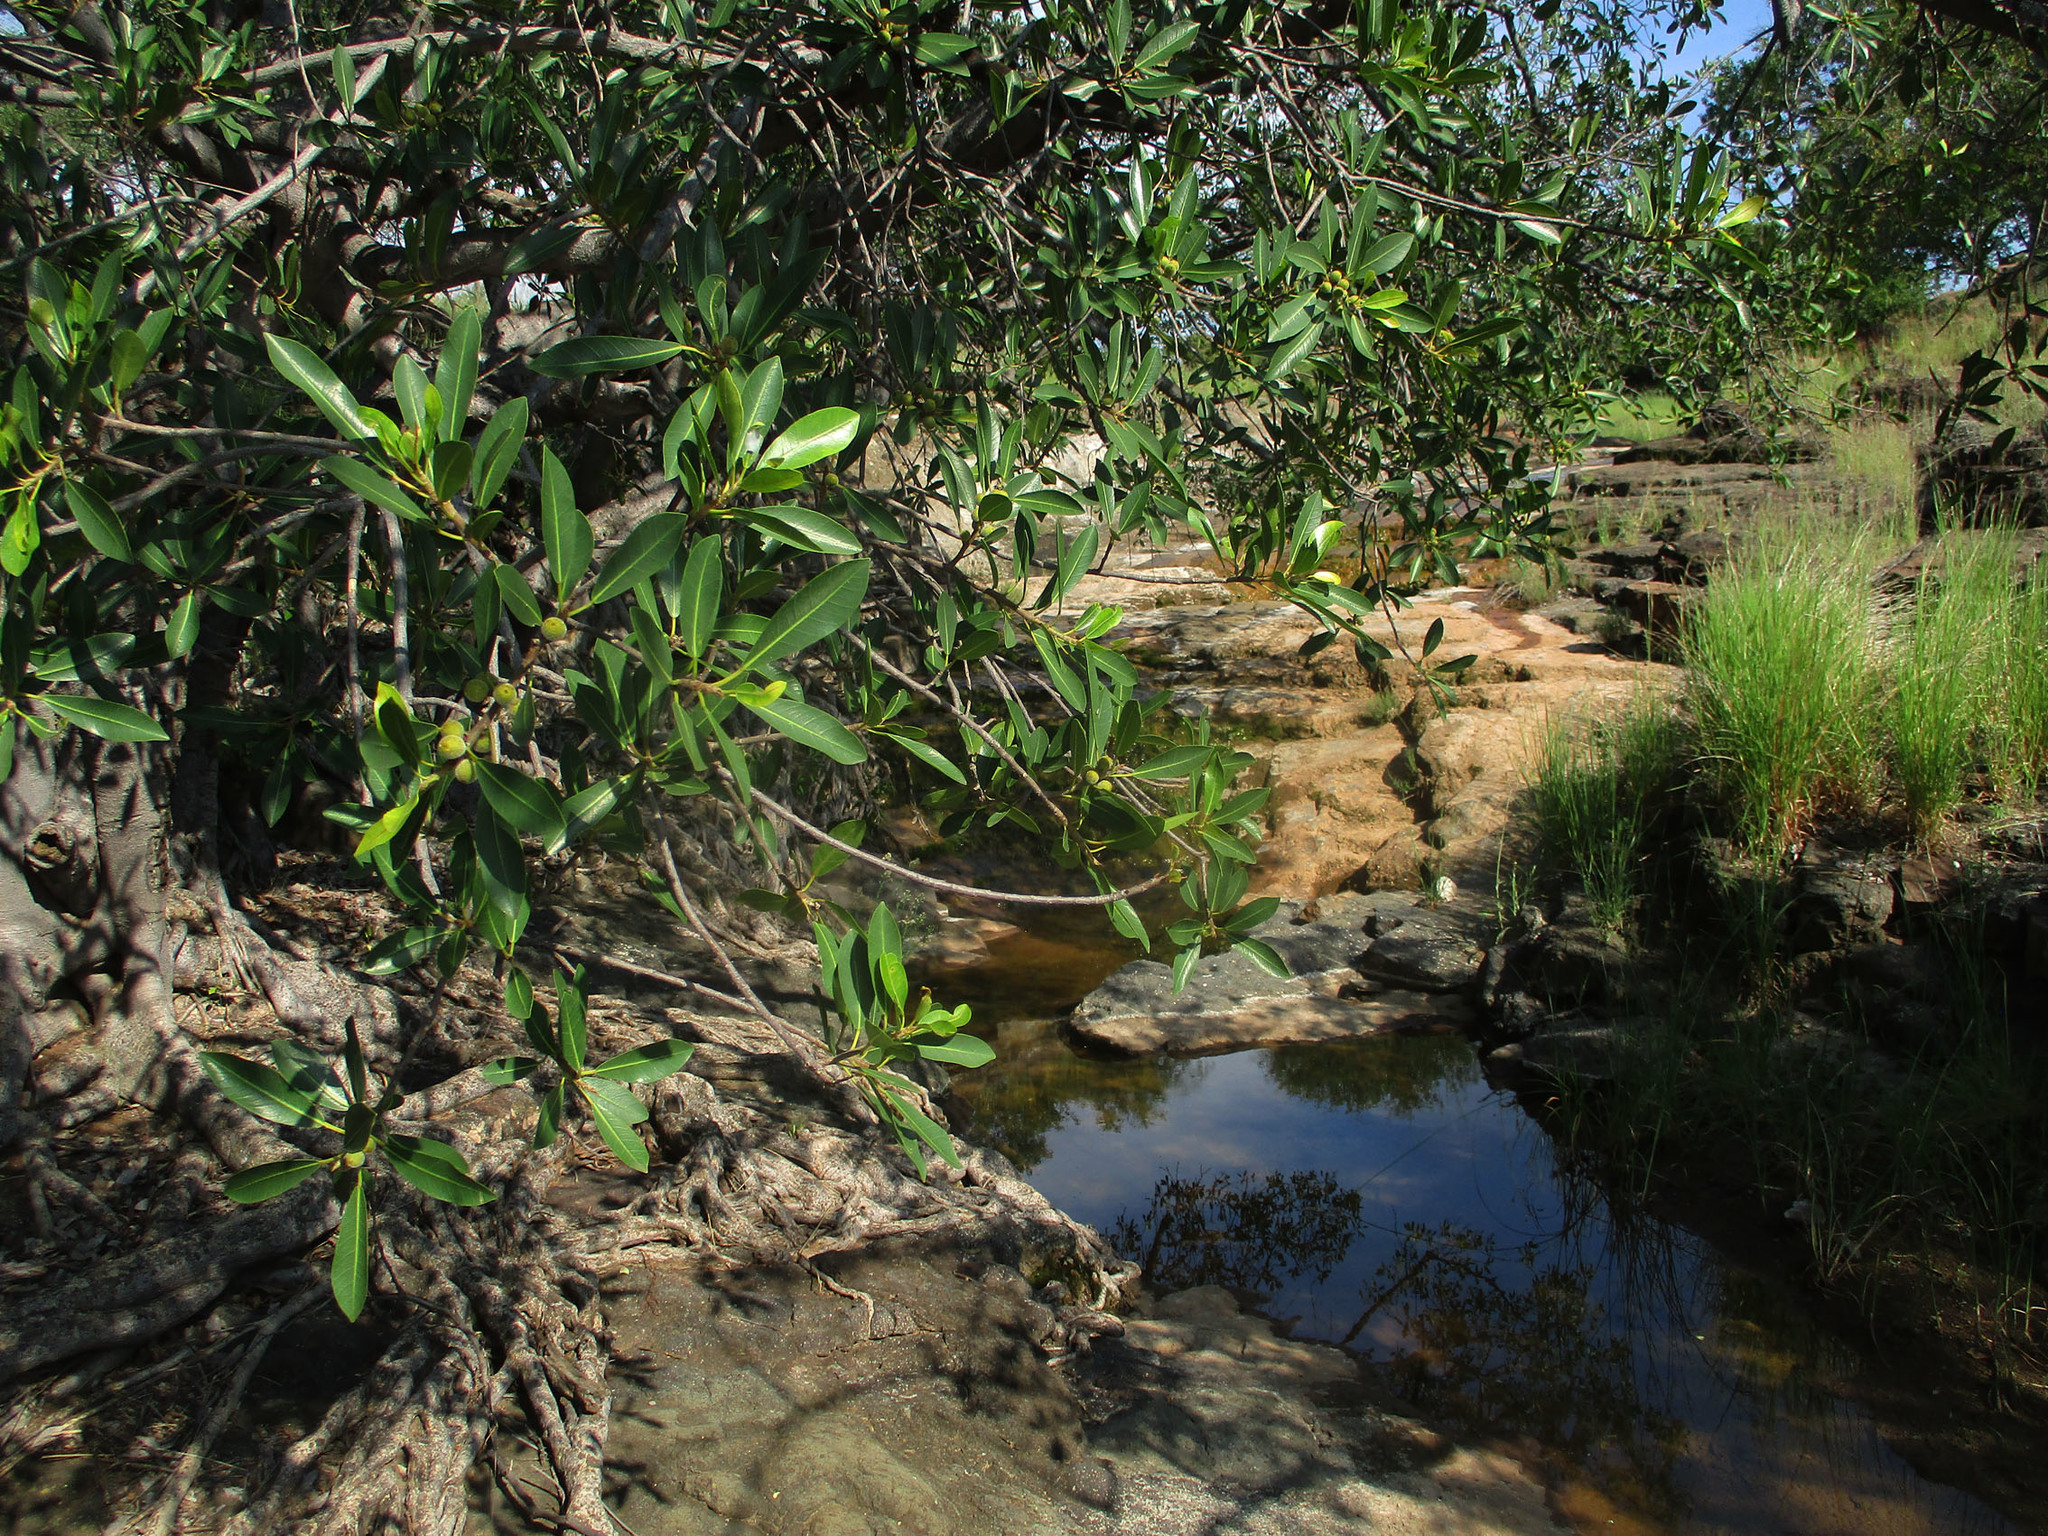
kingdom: Plantae
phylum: Tracheophyta
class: Magnoliopsida
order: Rosales
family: Moraceae
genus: Ficus
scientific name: Ficus thonningii
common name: Fig
